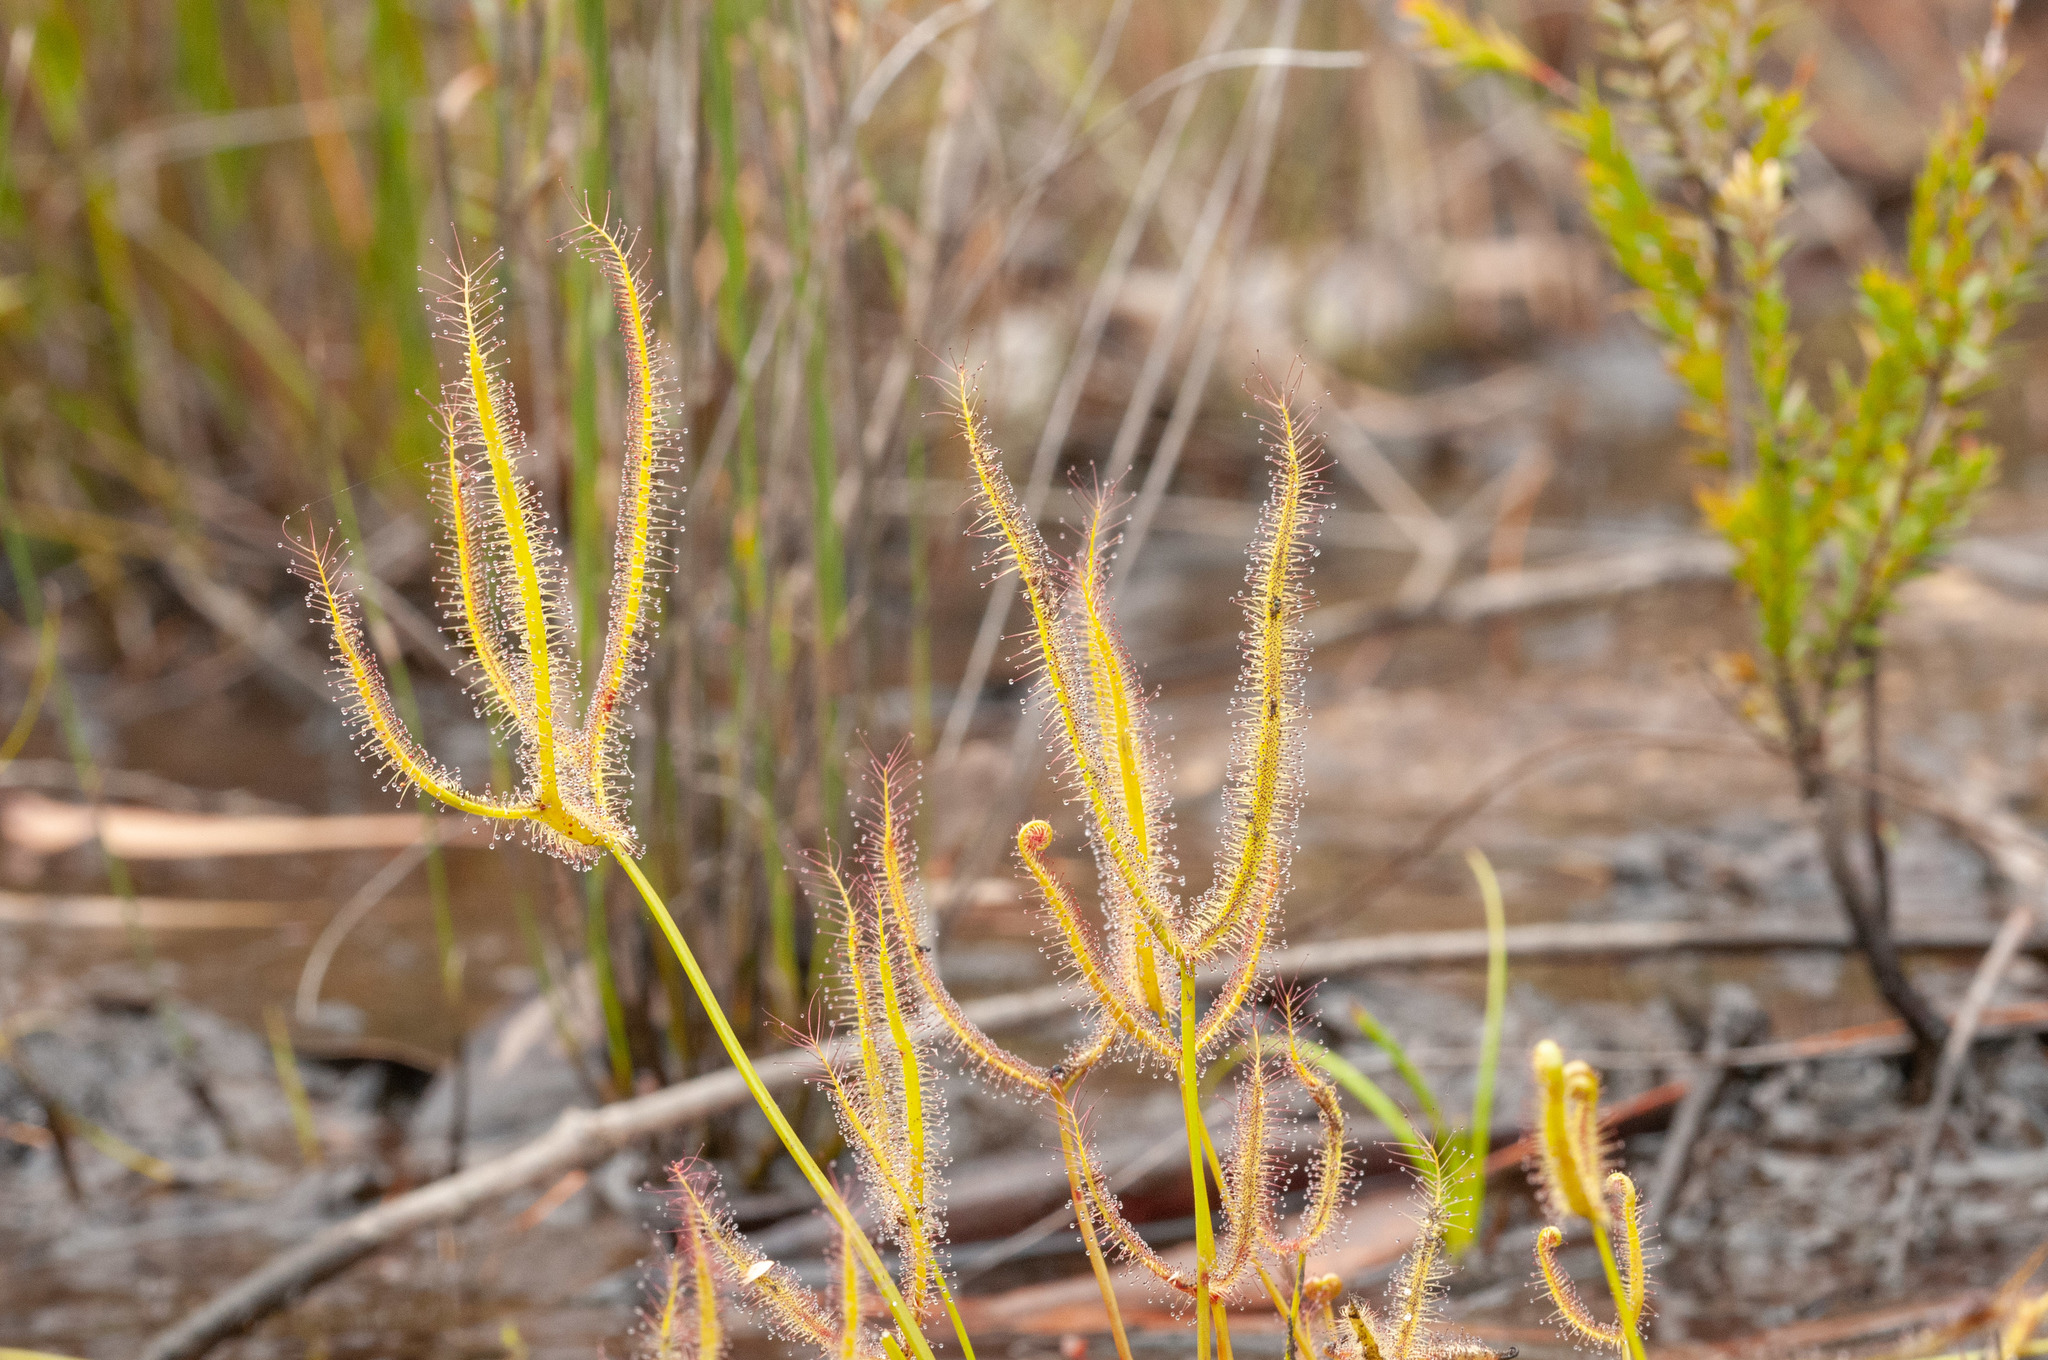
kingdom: Plantae
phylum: Tracheophyta
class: Magnoliopsida
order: Caryophyllales
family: Droseraceae
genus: Drosera
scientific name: Drosera binata
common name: Forked sundew
